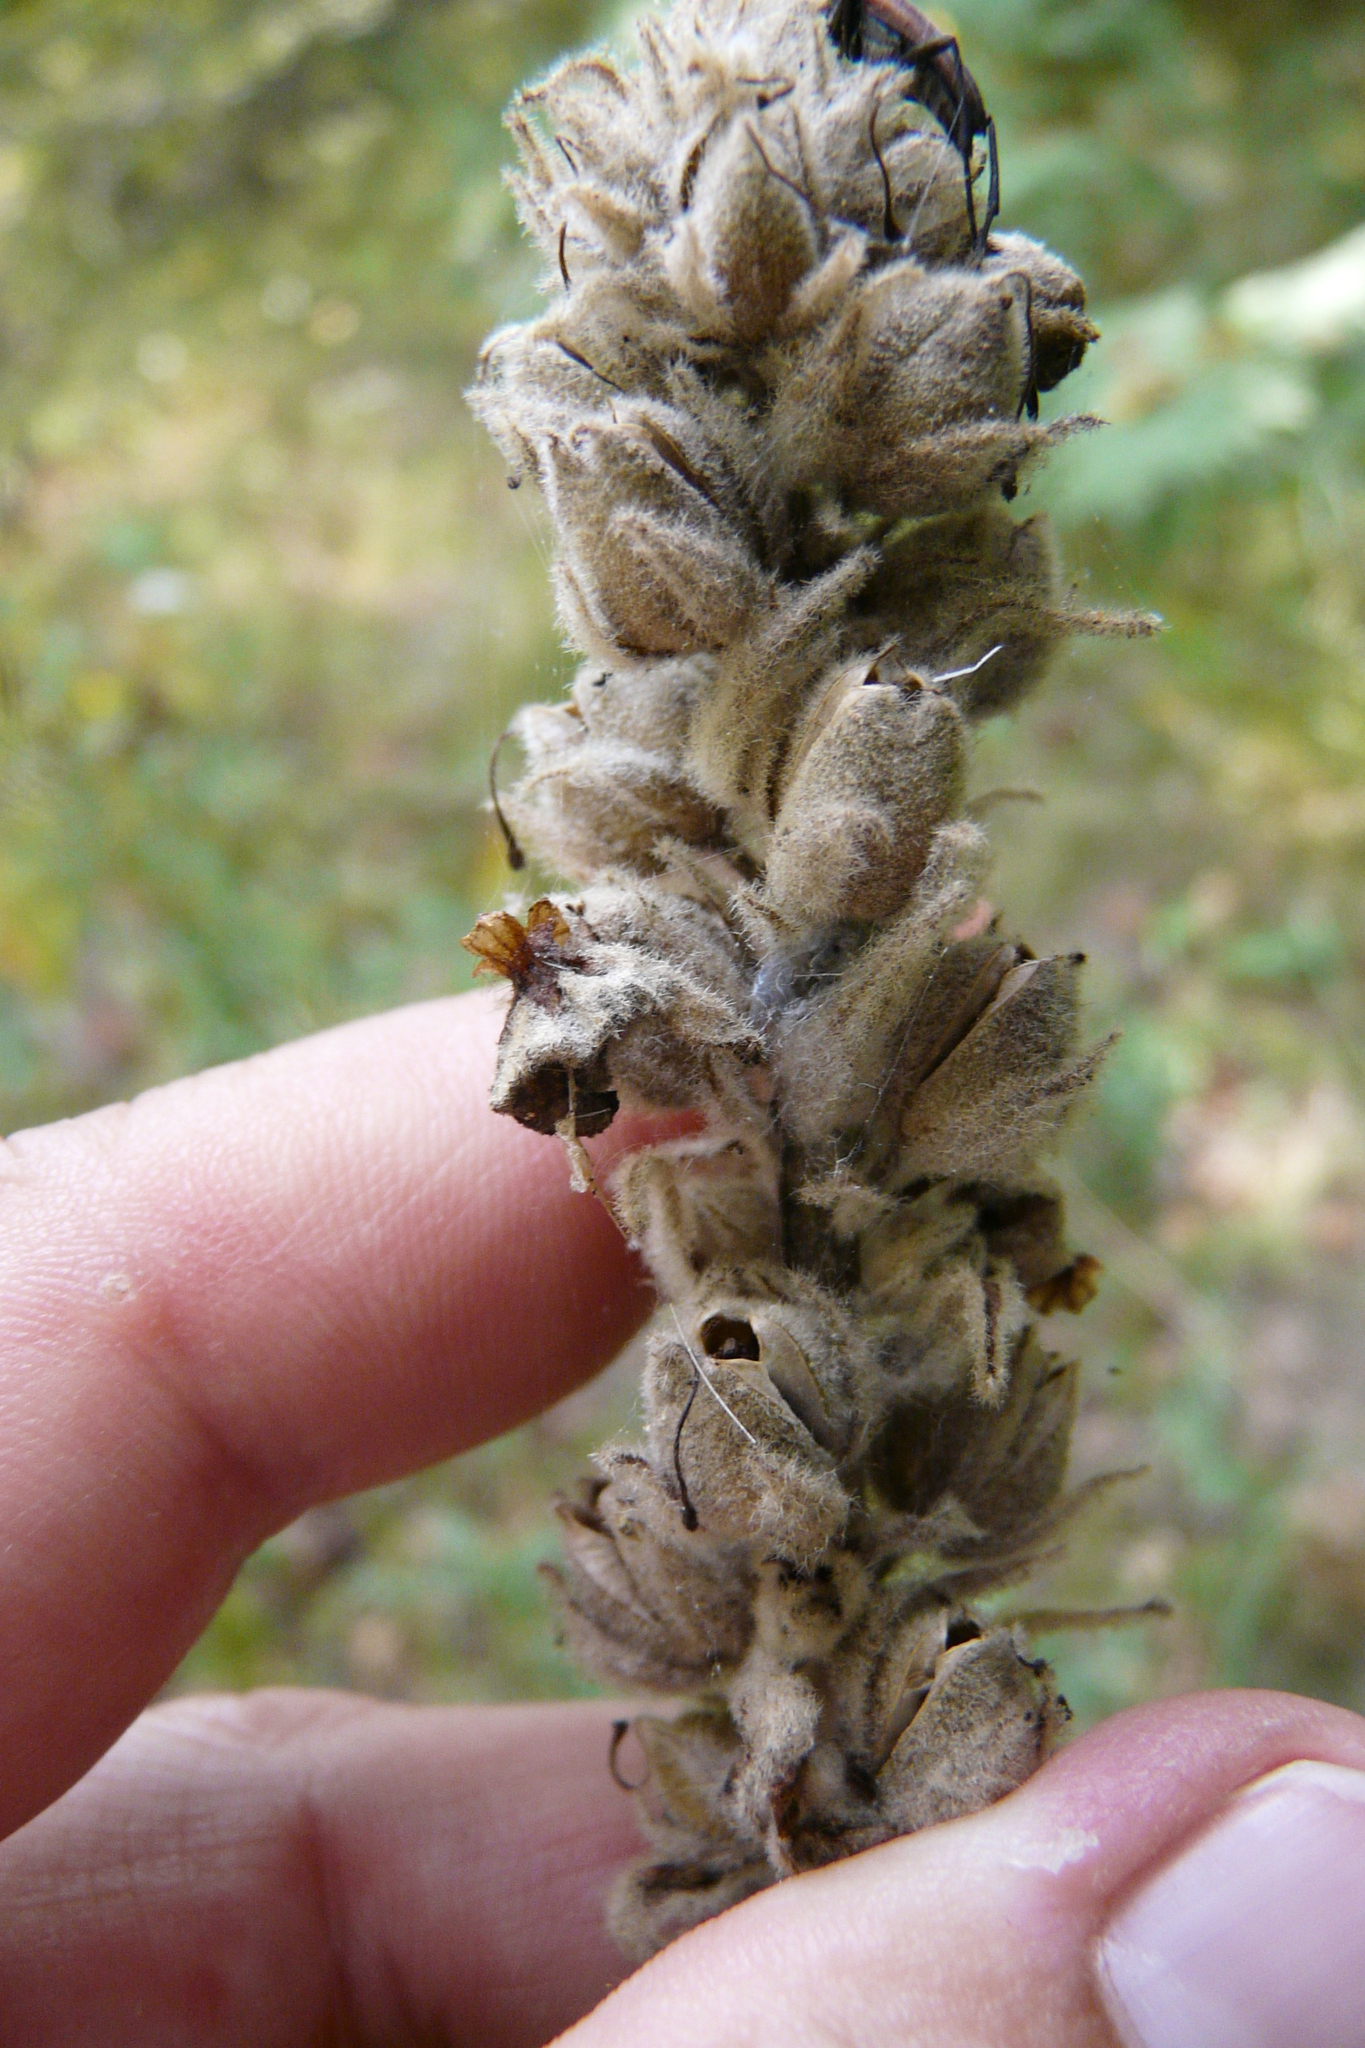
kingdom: Plantae
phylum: Tracheophyta
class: Magnoliopsida
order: Lamiales
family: Scrophulariaceae
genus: Verbascum
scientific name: Verbascum thapsus
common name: Common mullein
